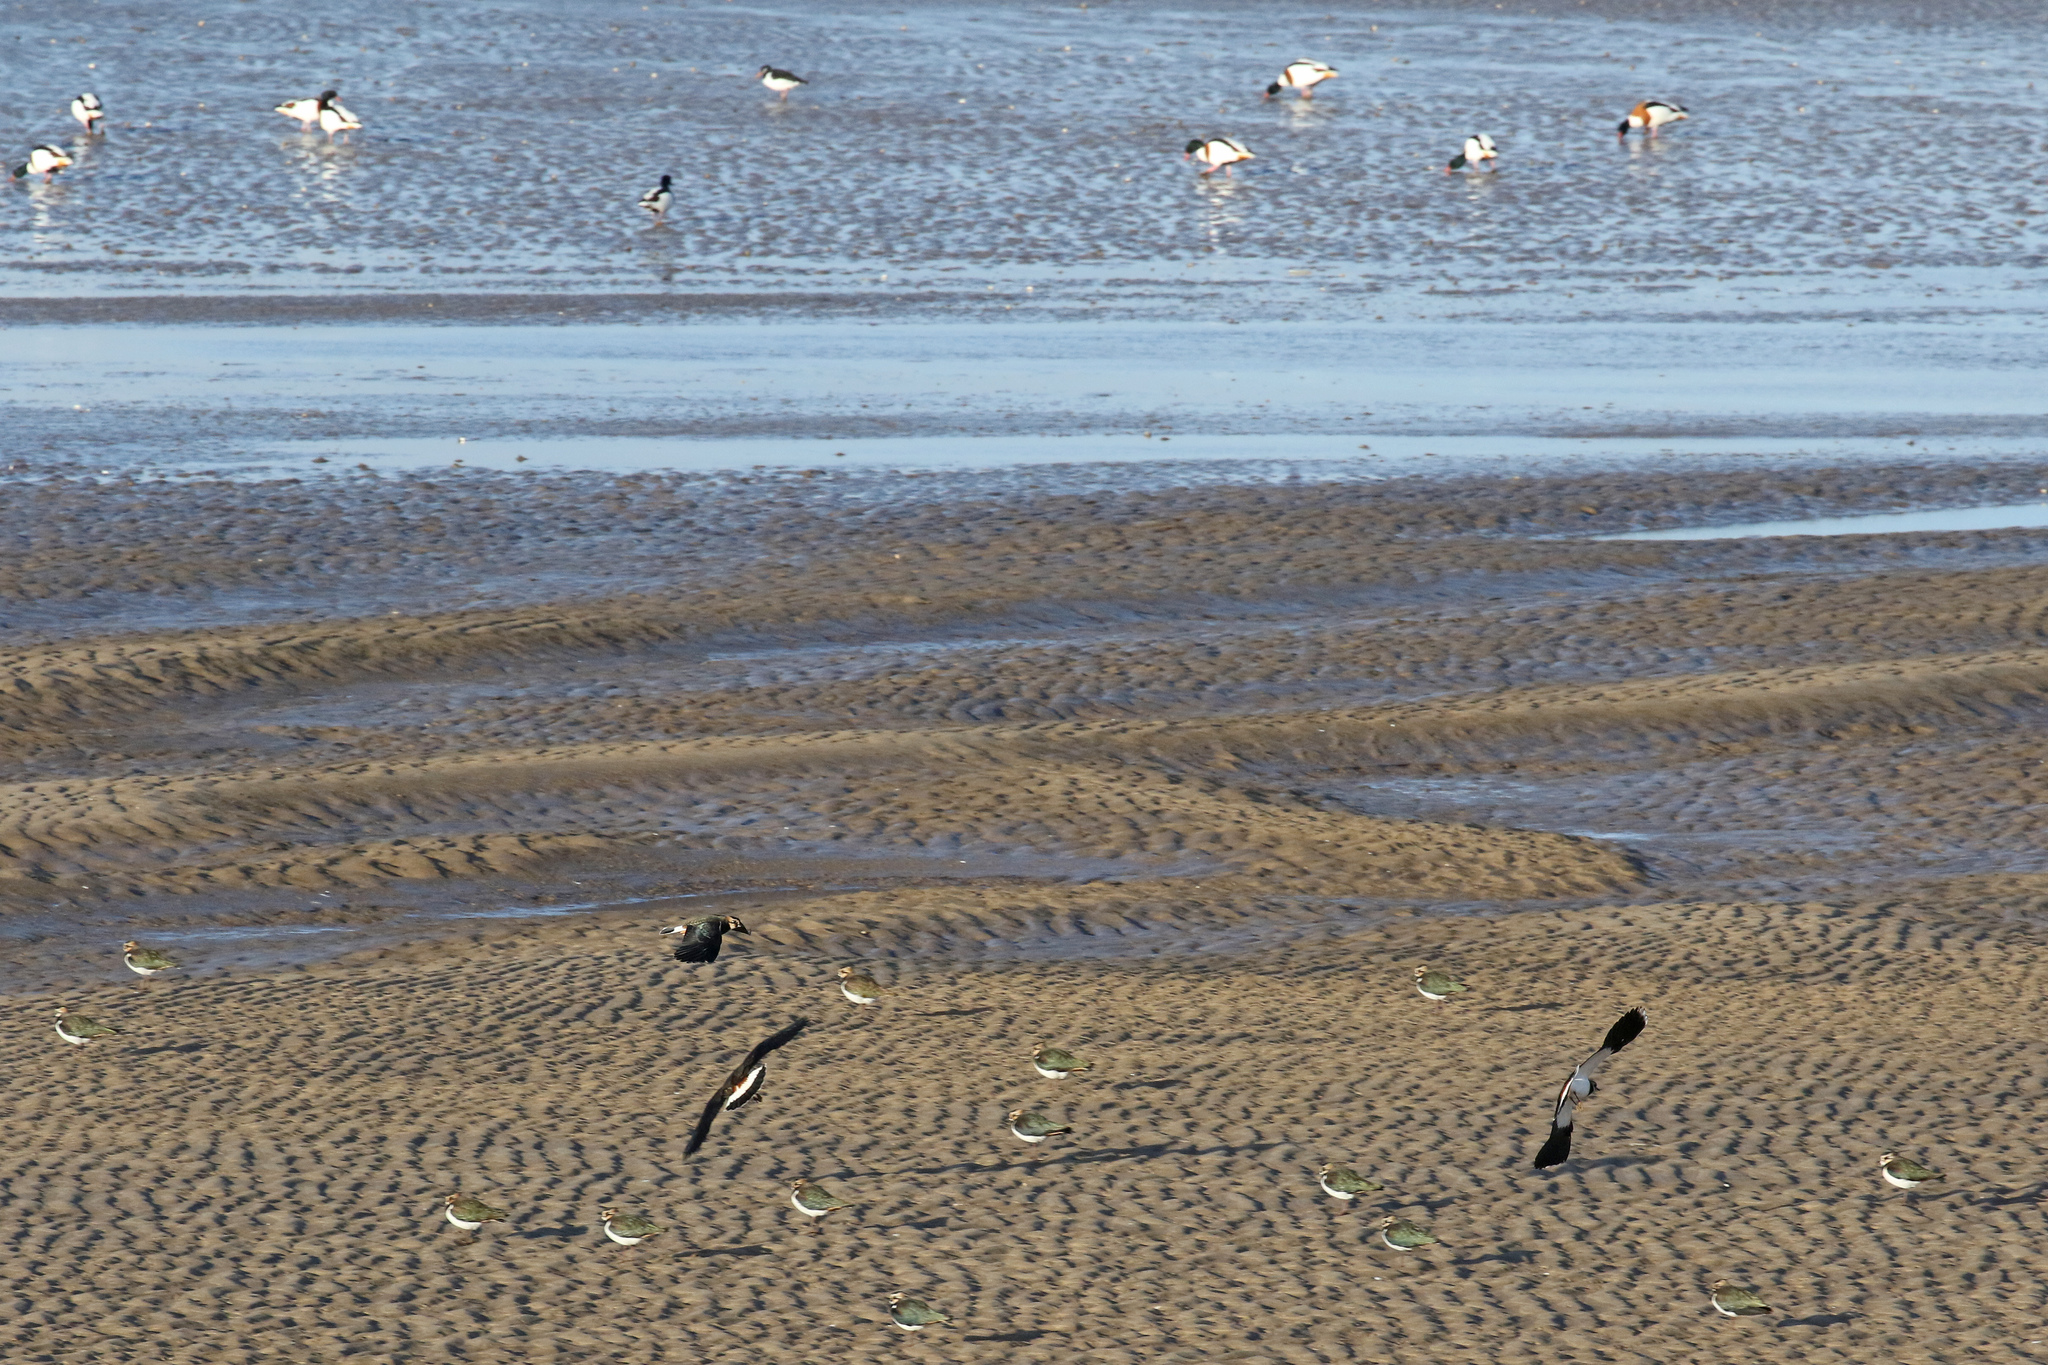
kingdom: Animalia
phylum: Chordata
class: Aves
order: Anseriformes
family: Anatidae
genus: Tadorna
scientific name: Tadorna tadorna
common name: Common shelduck
